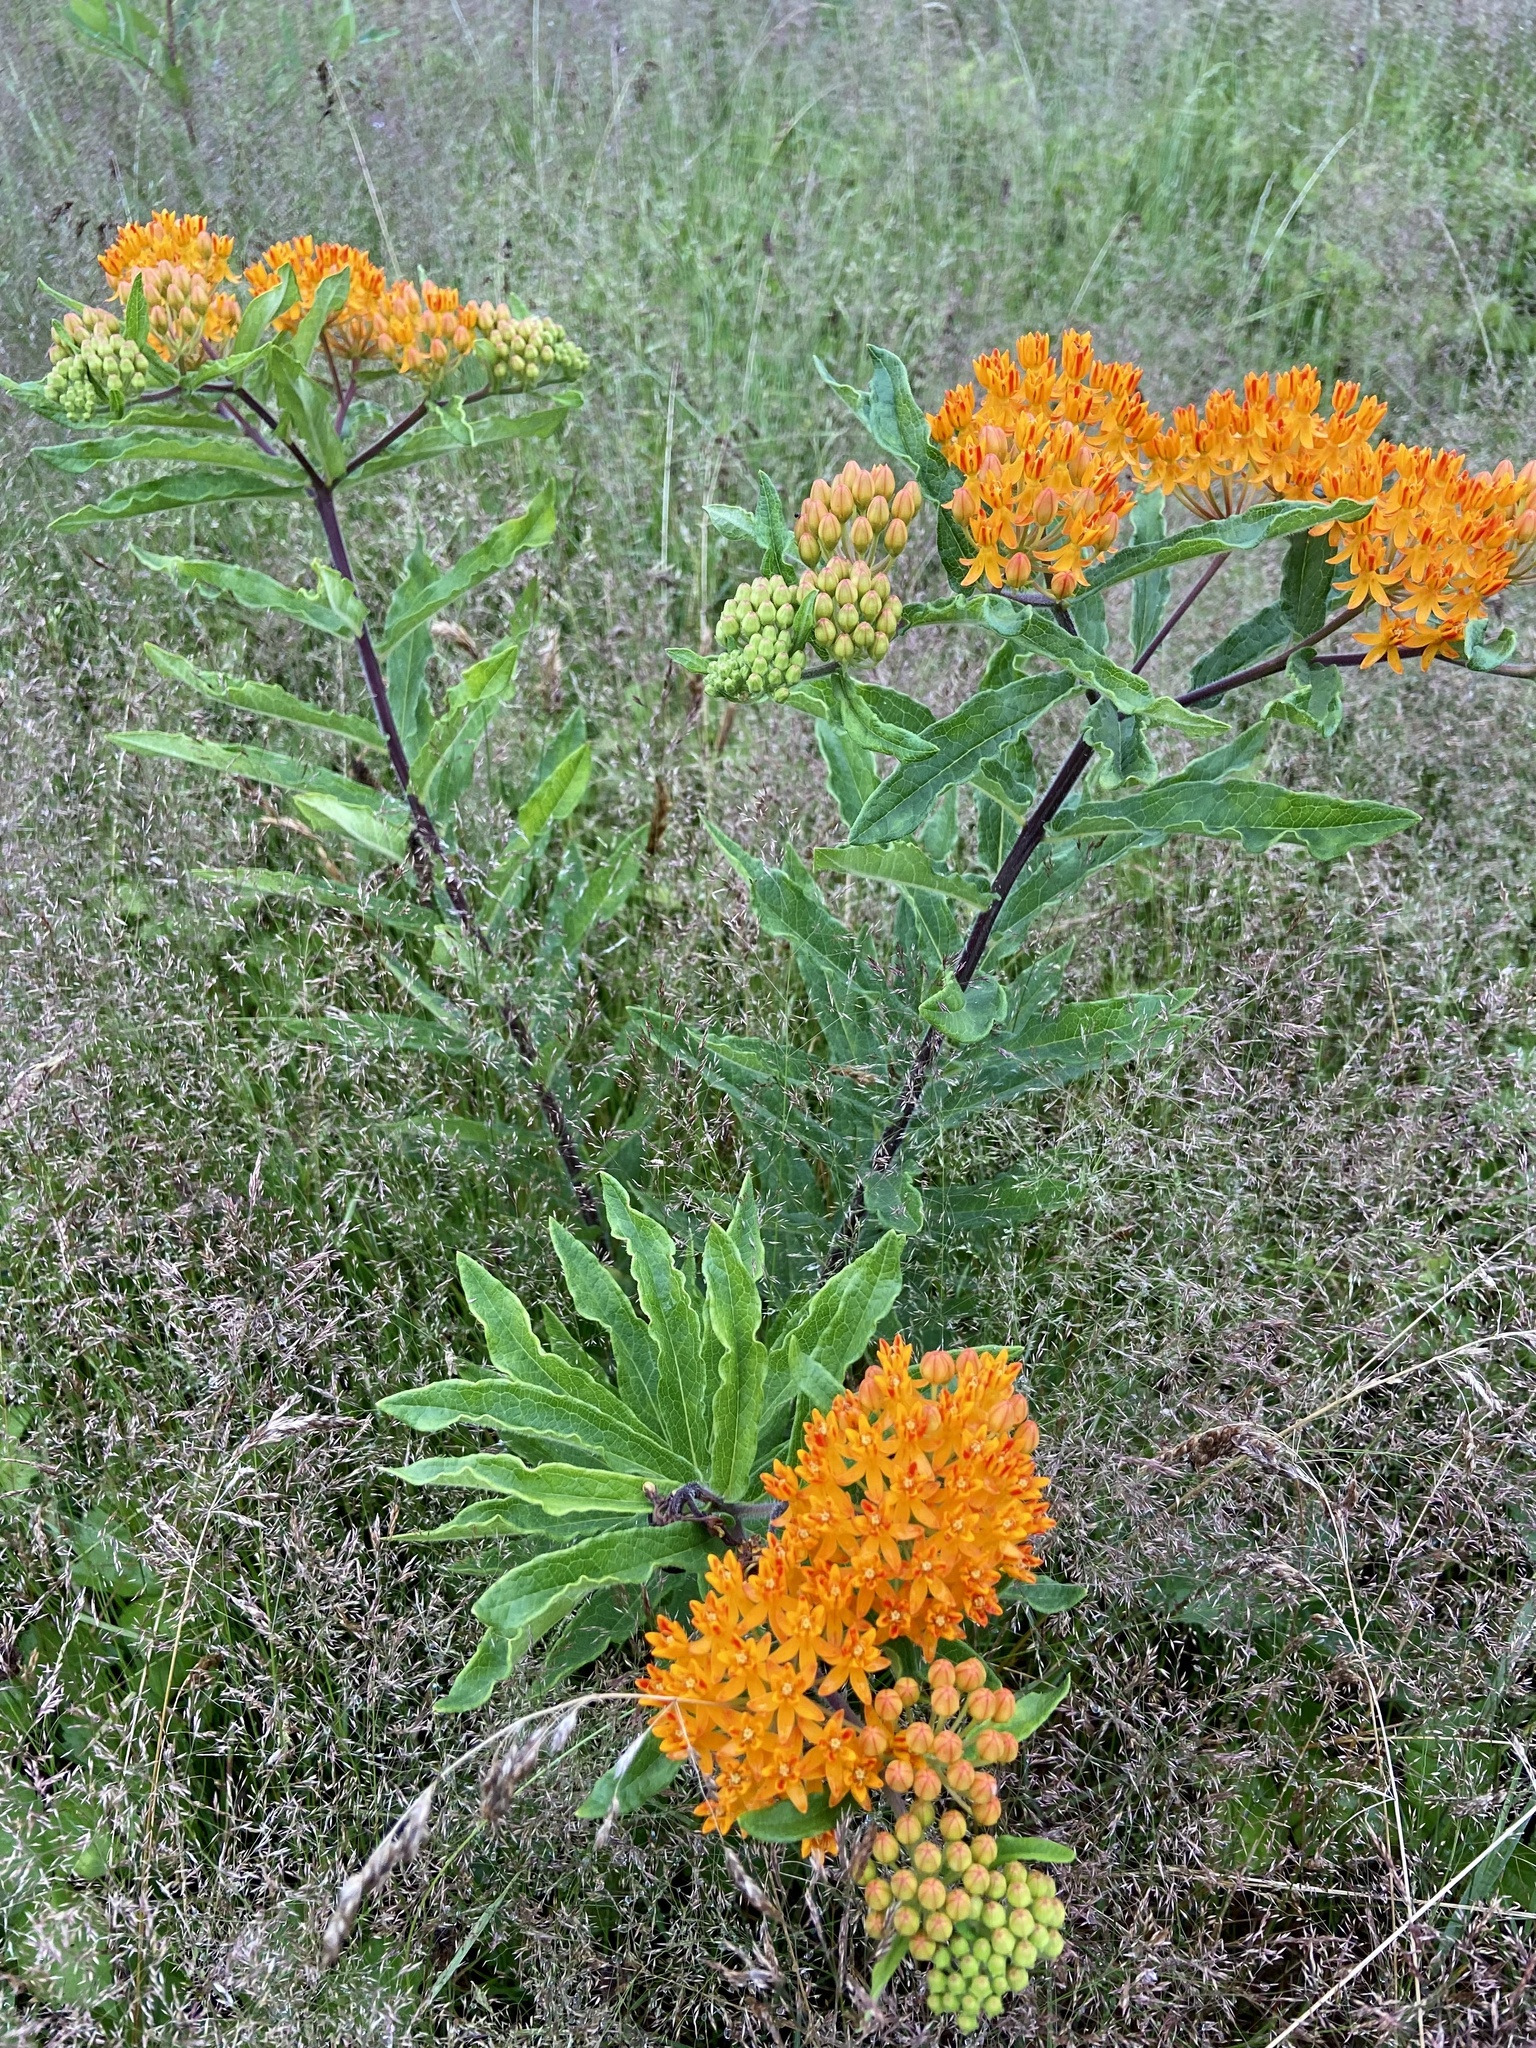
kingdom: Plantae
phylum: Tracheophyta
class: Magnoliopsida
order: Gentianales
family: Apocynaceae
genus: Asclepias
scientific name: Asclepias tuberosa
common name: Butterfly milkweed
